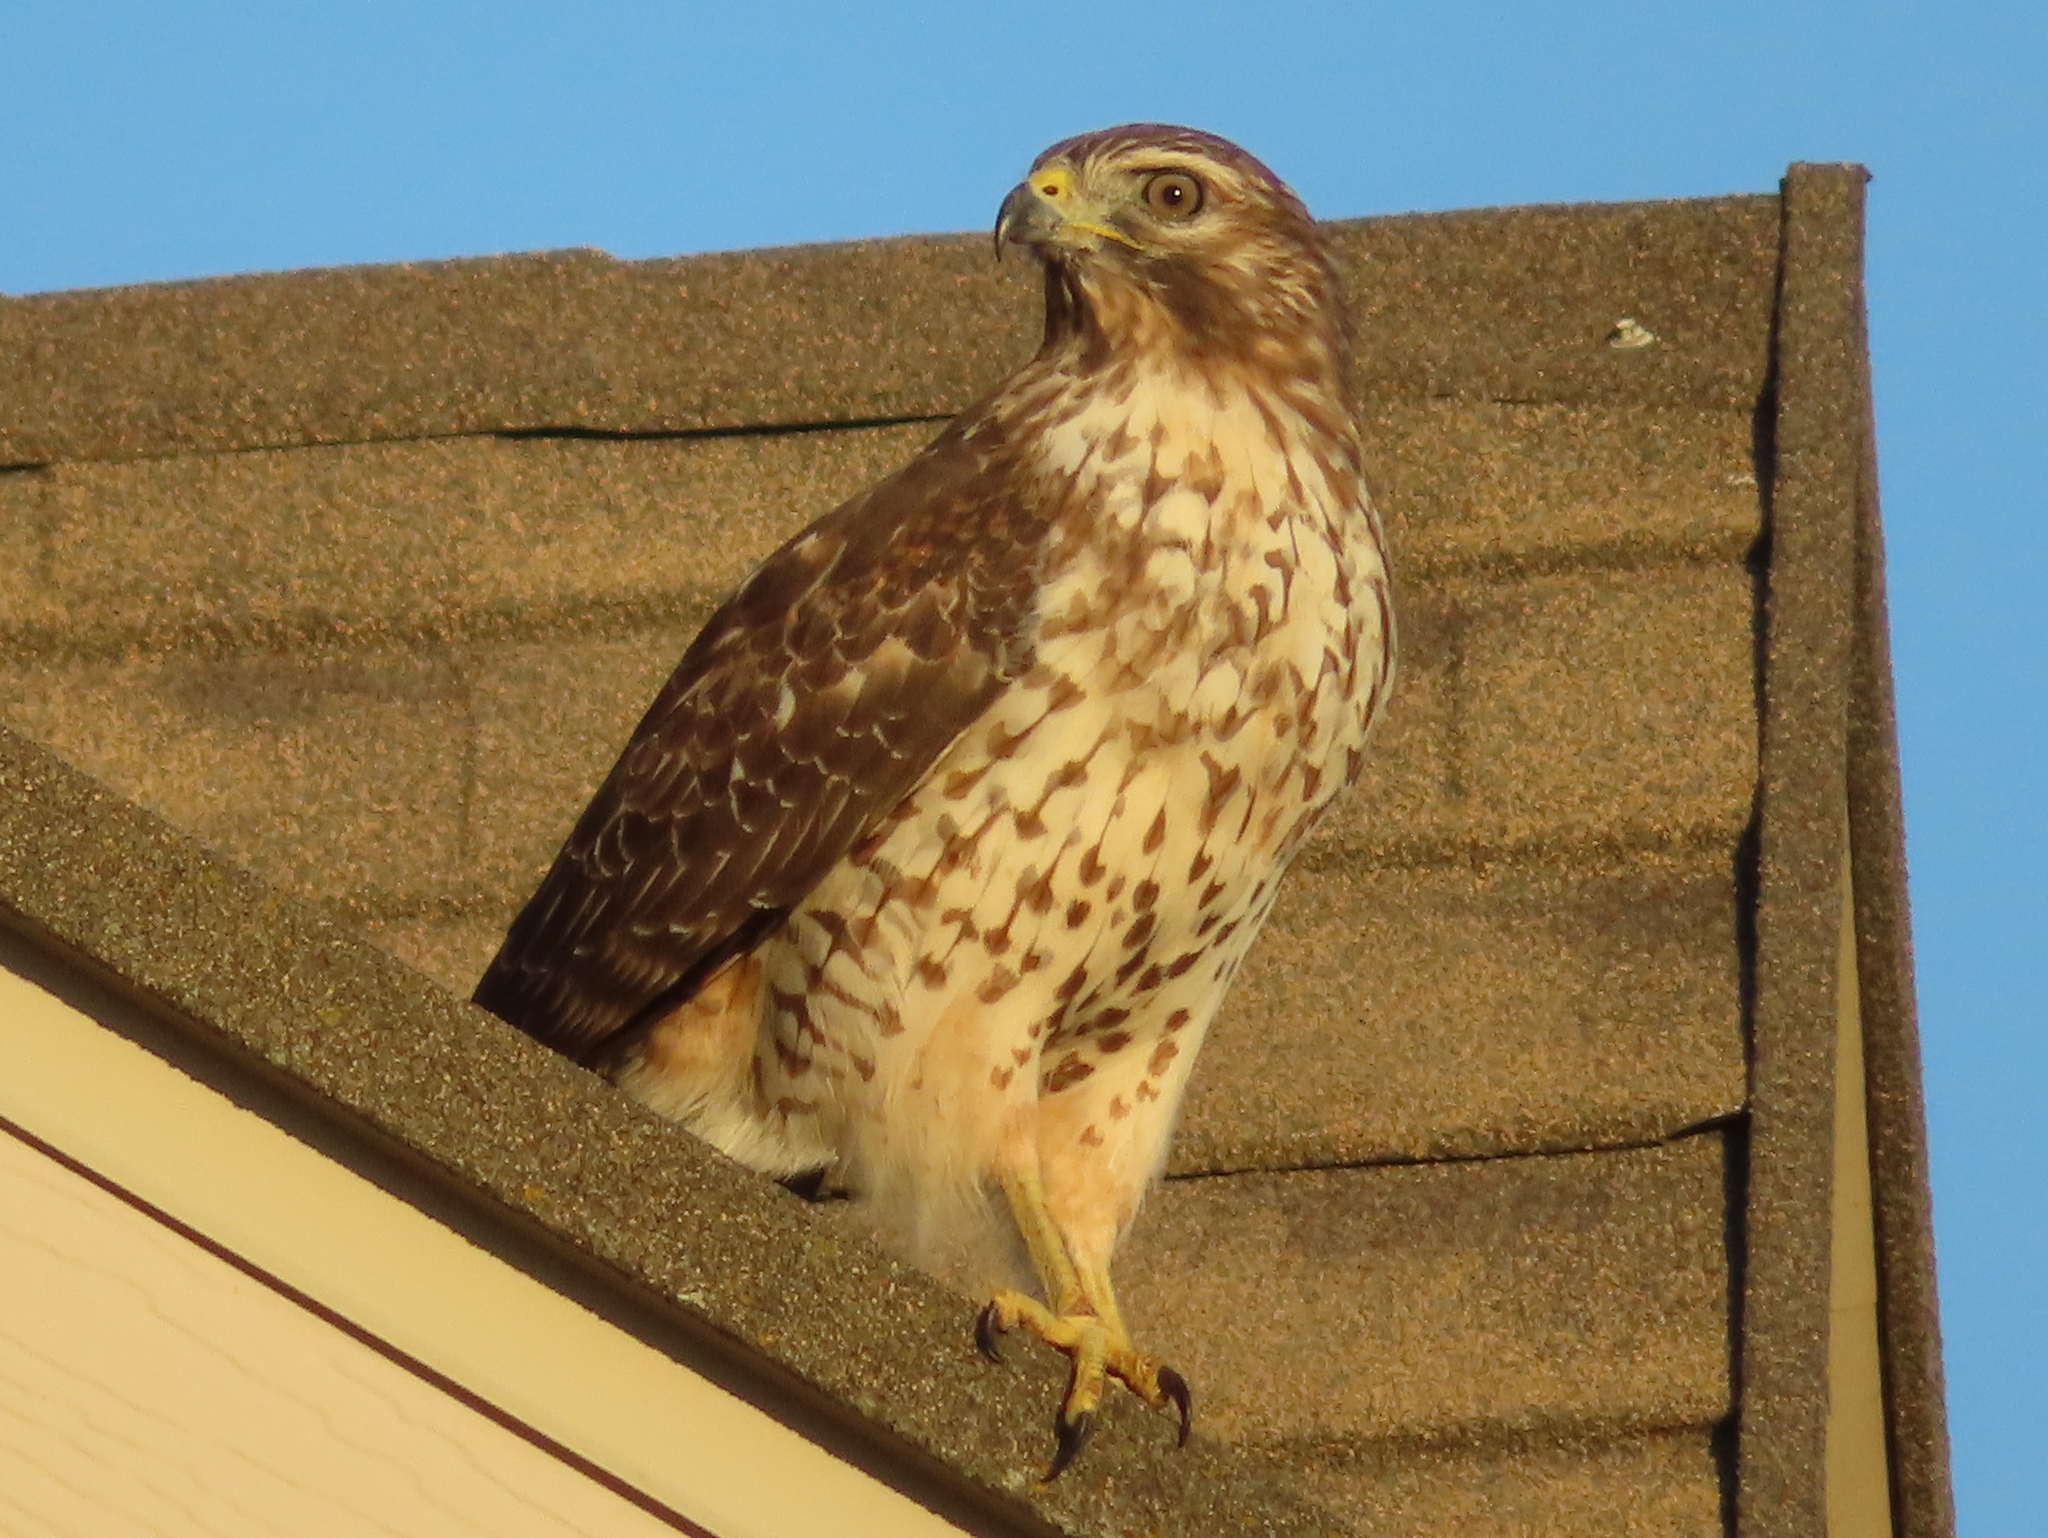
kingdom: Animalia
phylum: Chordata
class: Aves
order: Accipitriformes
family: Accipitridae
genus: Buteo
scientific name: Buteo lineatus
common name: Red-shouldered hawk
